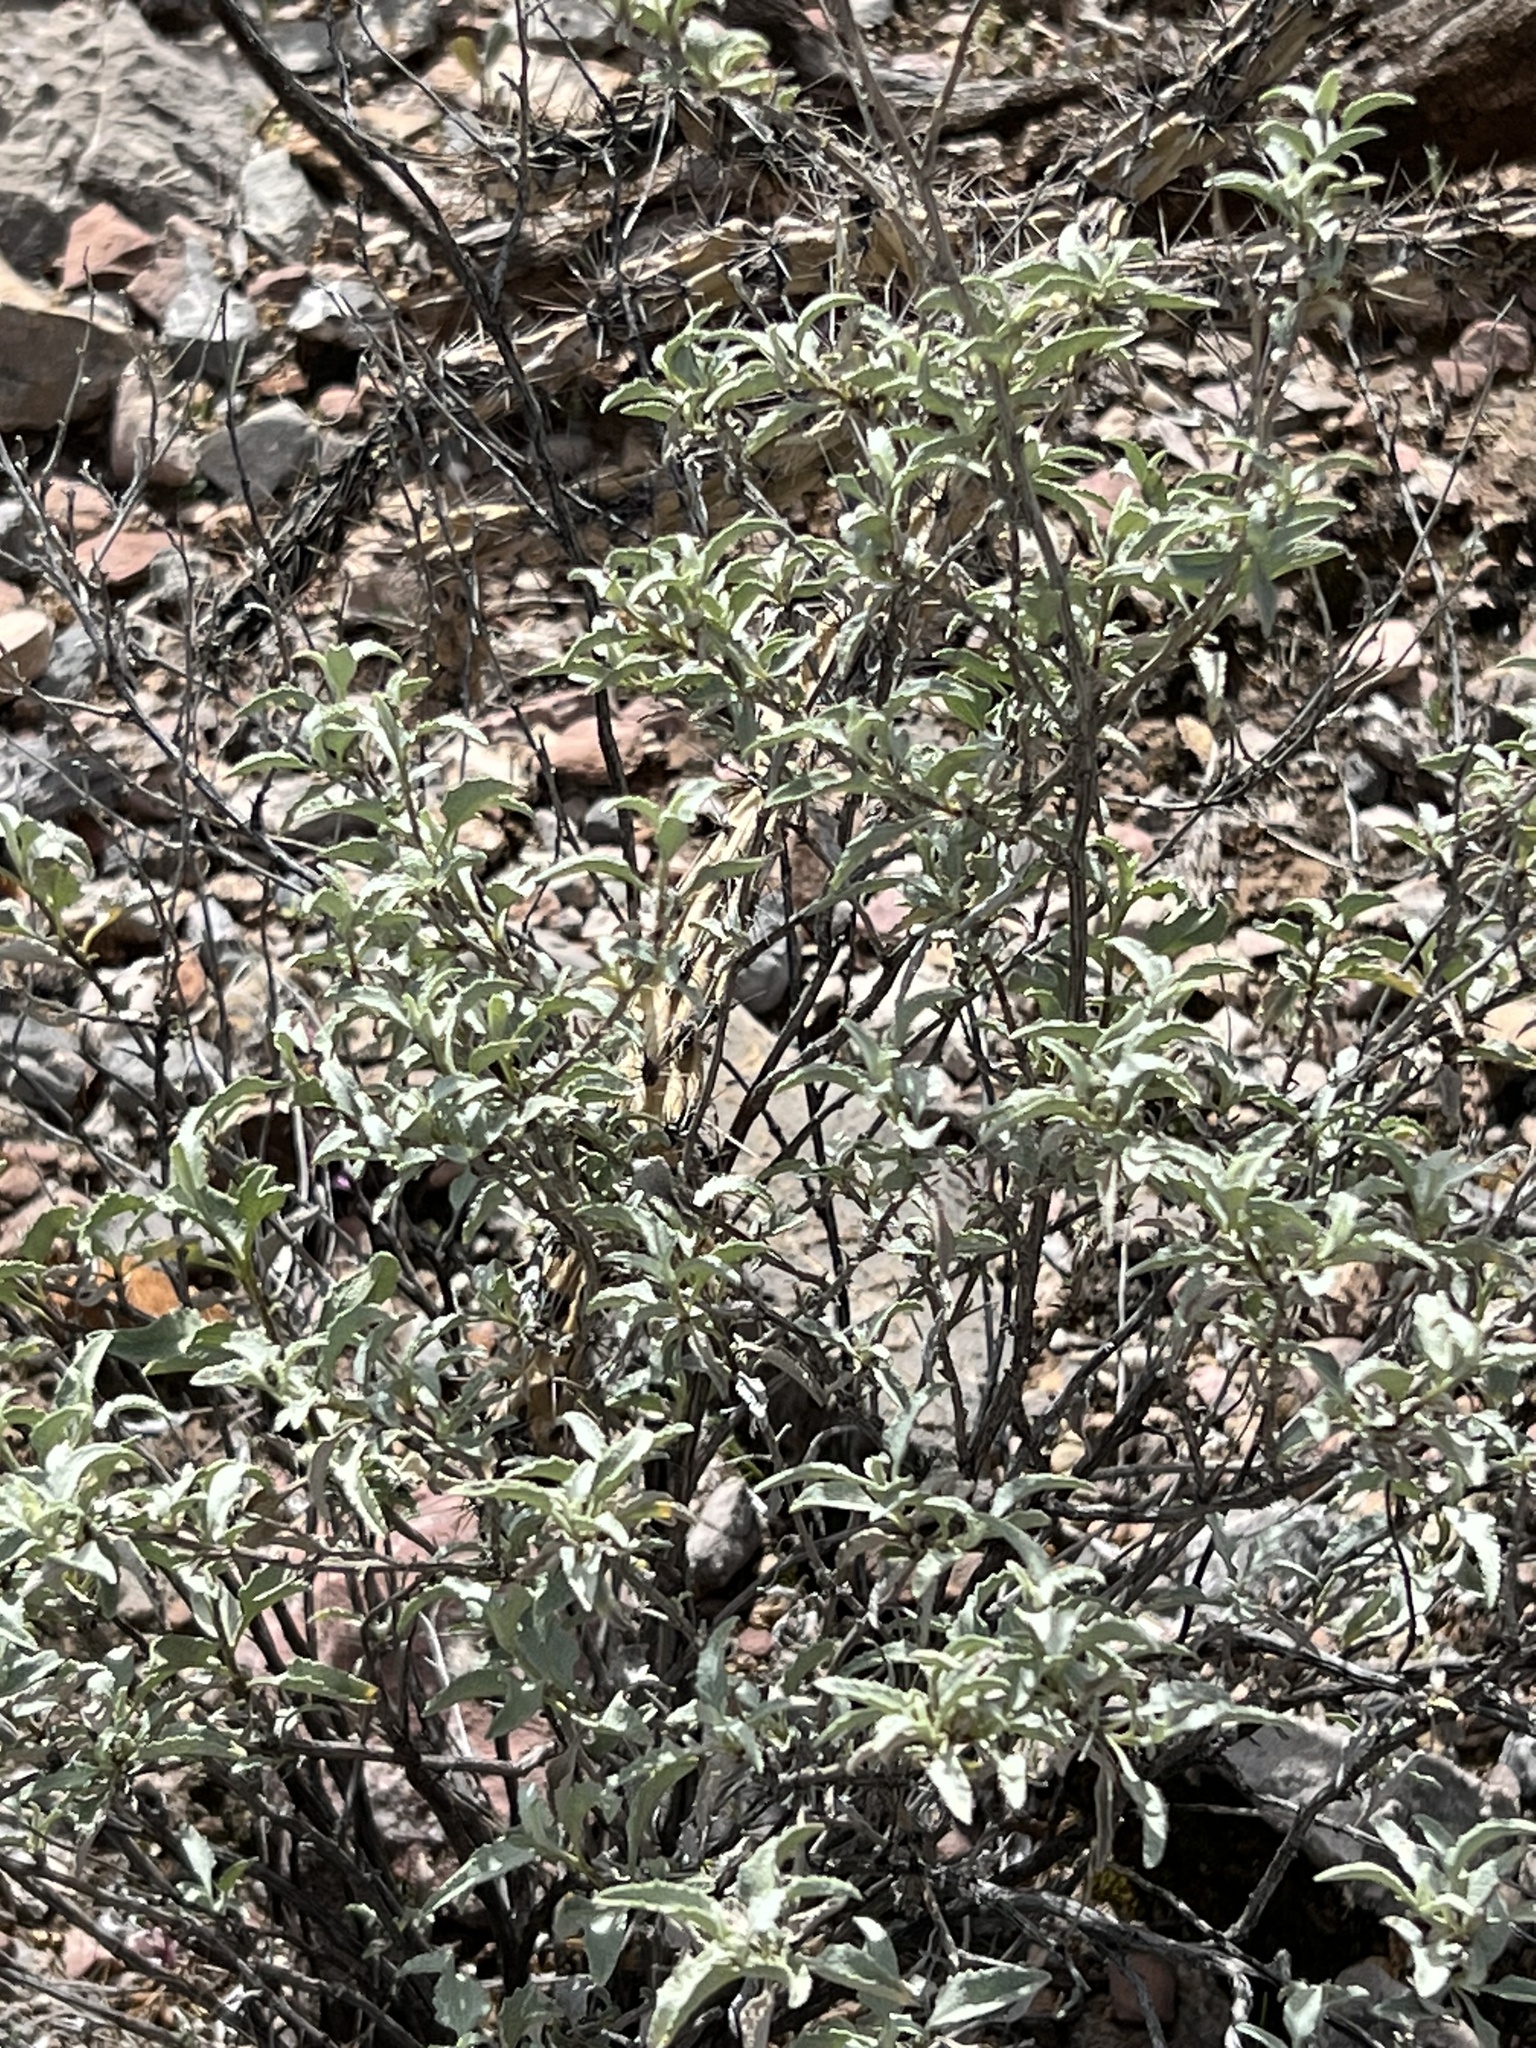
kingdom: Plantae
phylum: Tracheophyta
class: Magnoliopsida
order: Asterales
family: Asteraceae
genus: Ambrosia
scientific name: Ambrosia deltoidea
